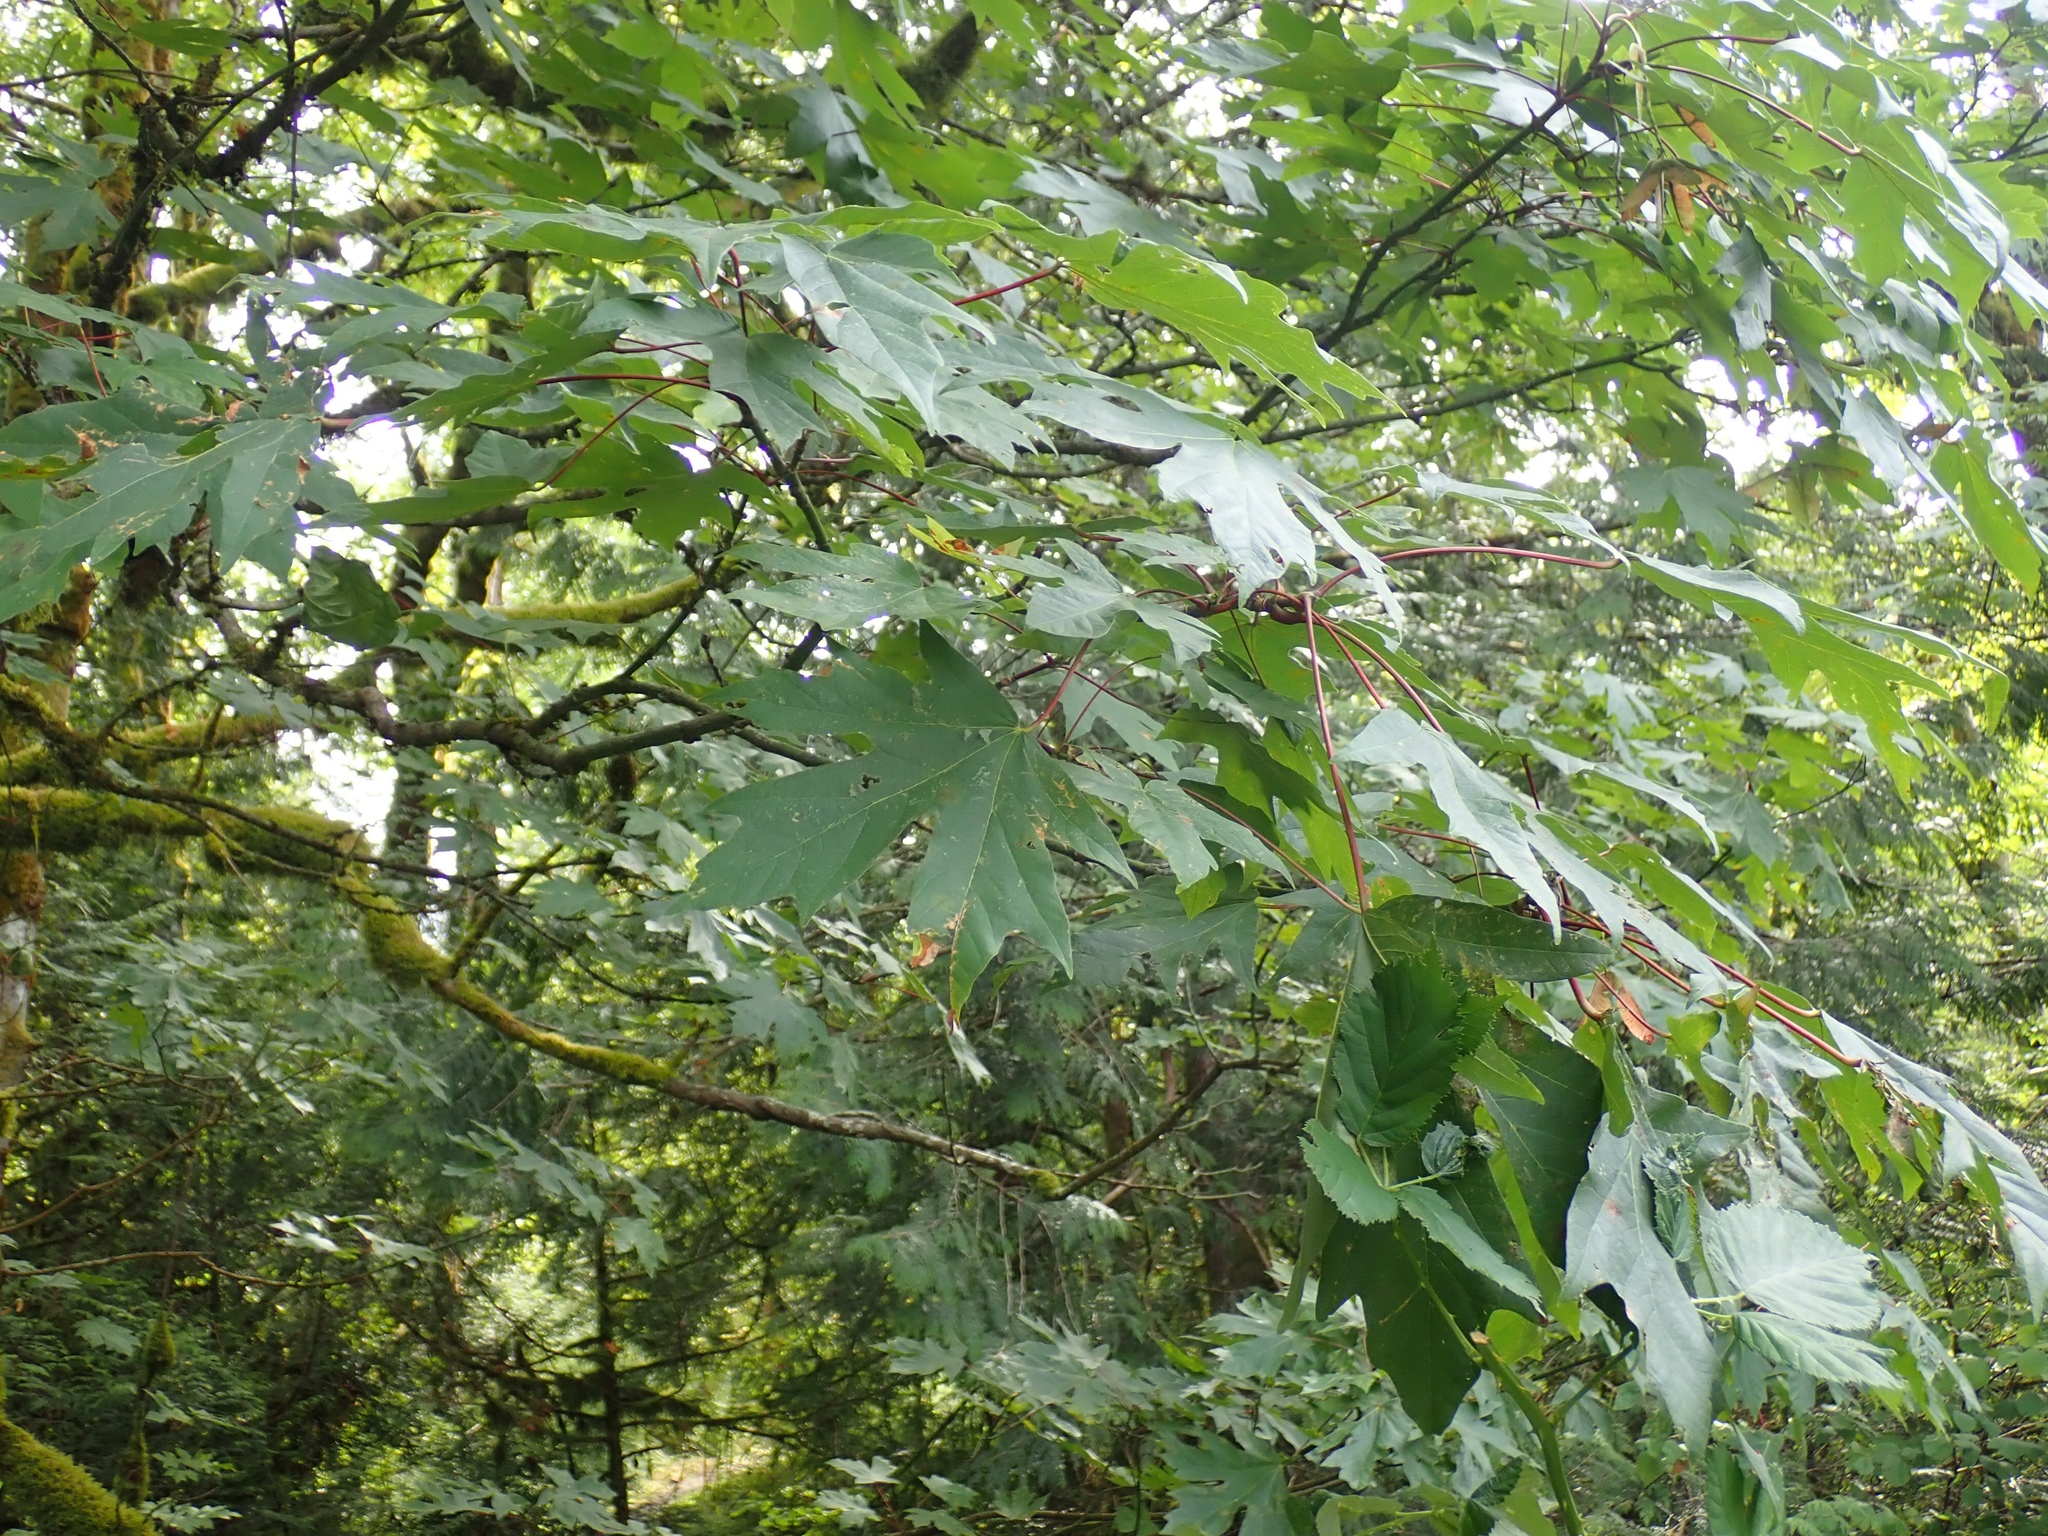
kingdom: Plantae
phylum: Tracheophyta
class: Magnoliopsida
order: Sapindales
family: Sapindaceae
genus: Acer
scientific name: Acer macrophyllum
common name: Oregon maple
